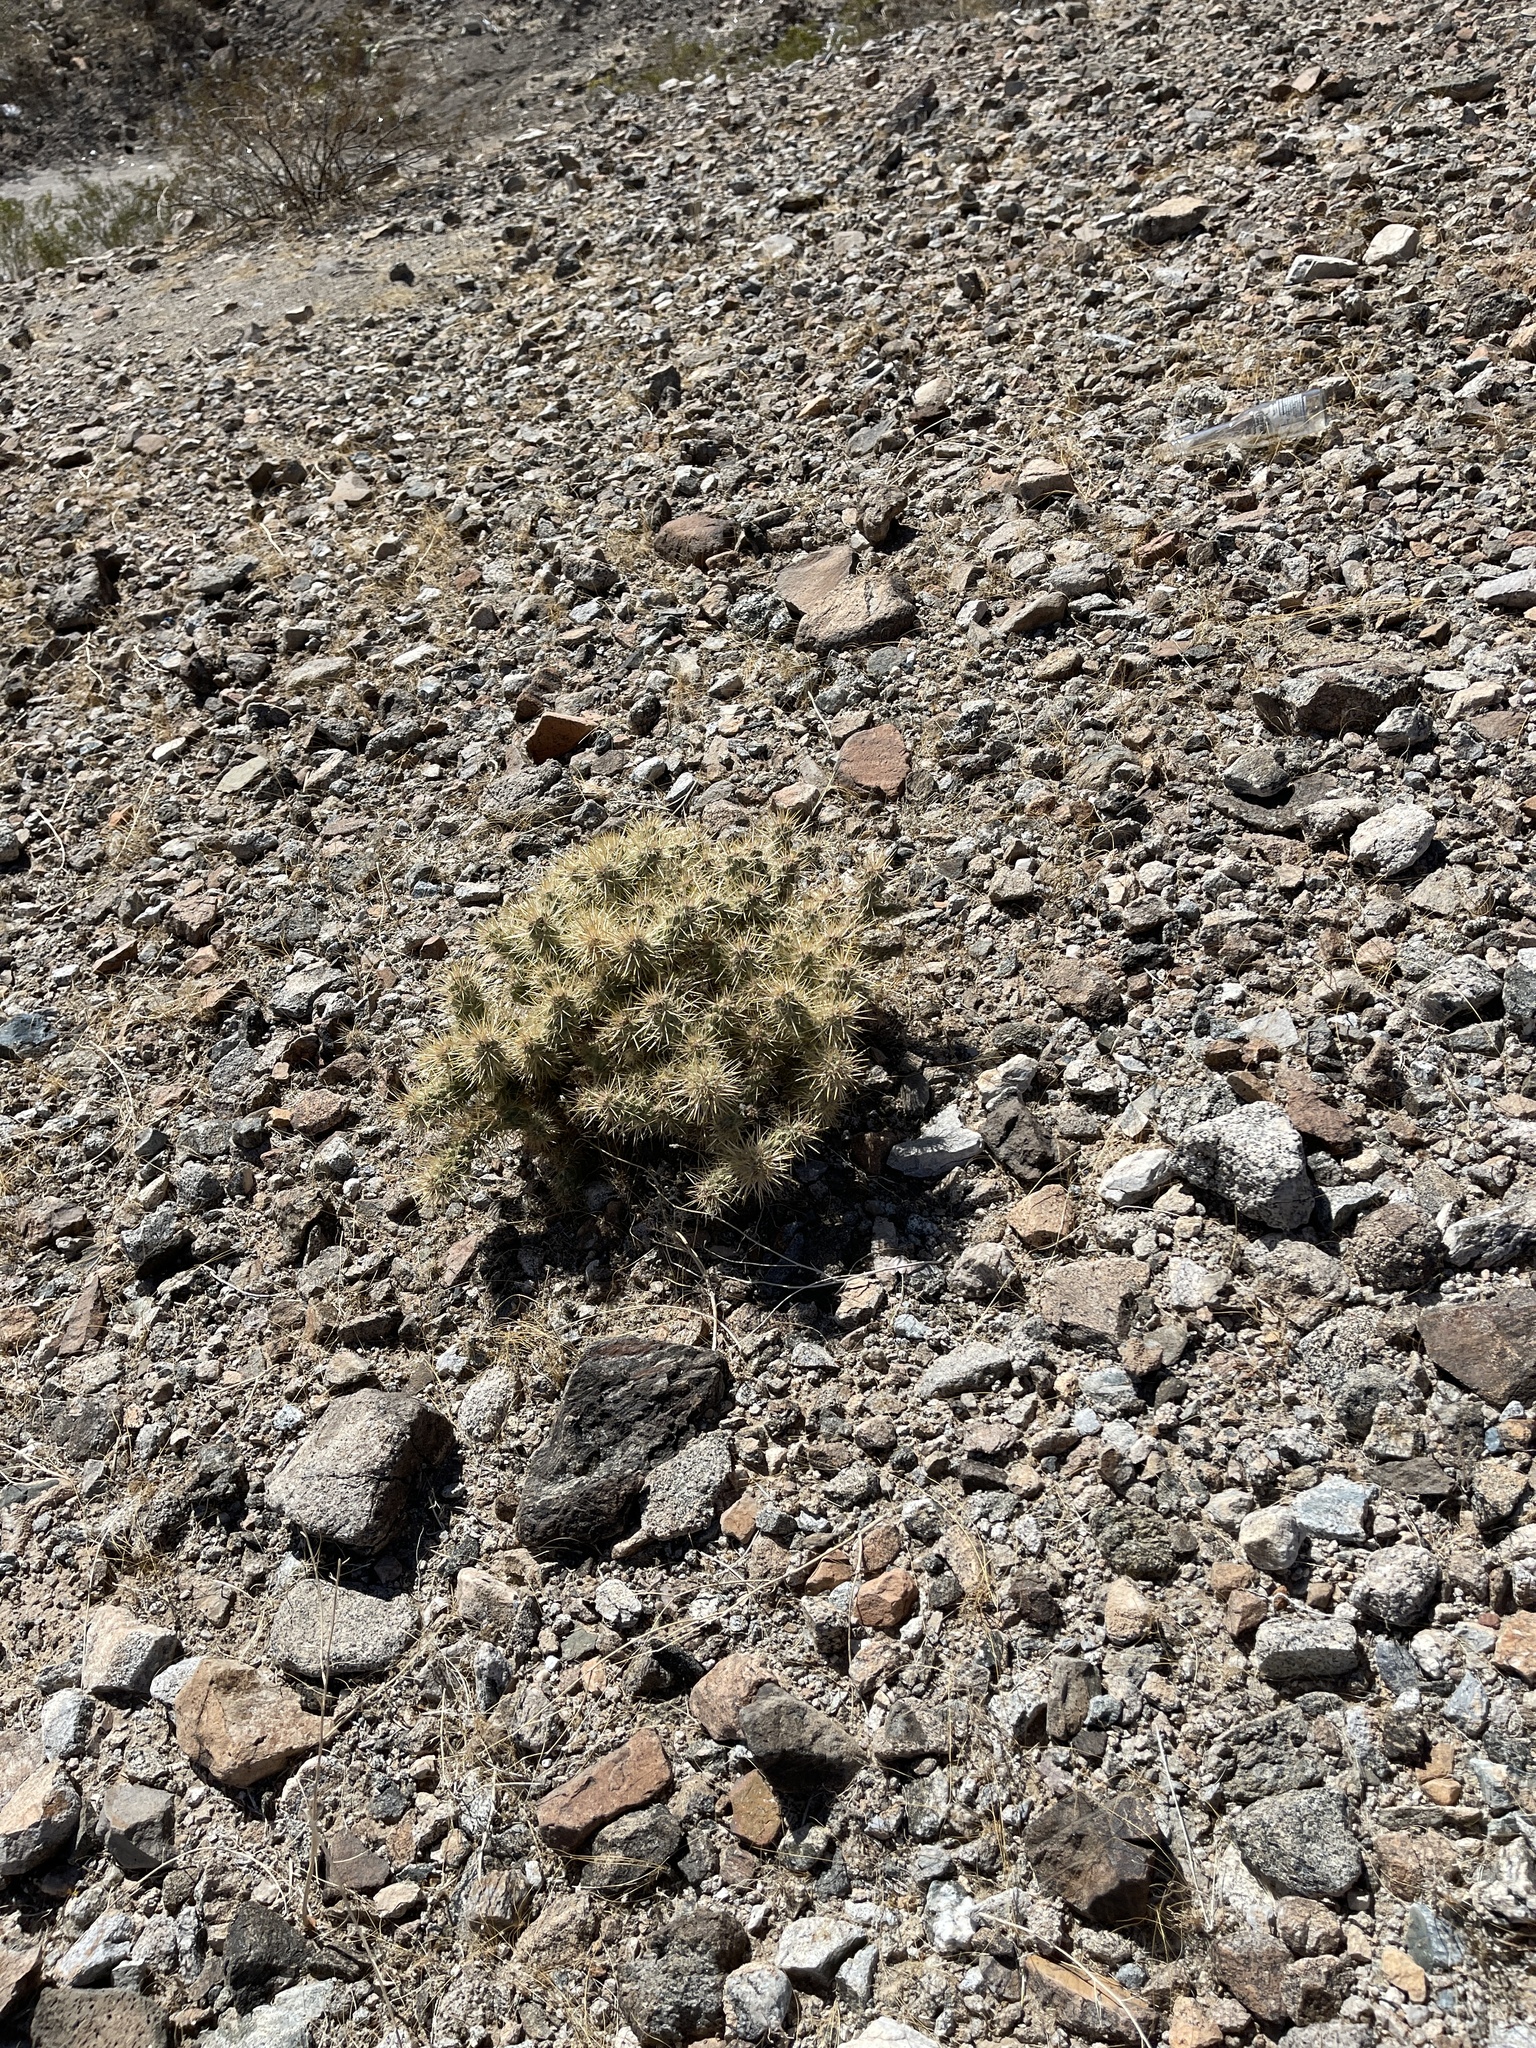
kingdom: Plantae
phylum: Tracheophyta
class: Magnoliopsida
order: Caryophyllales
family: Cactaceae
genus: Cylindropuntia
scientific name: Cylindropuntia echinocarpa
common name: Ground cholla
